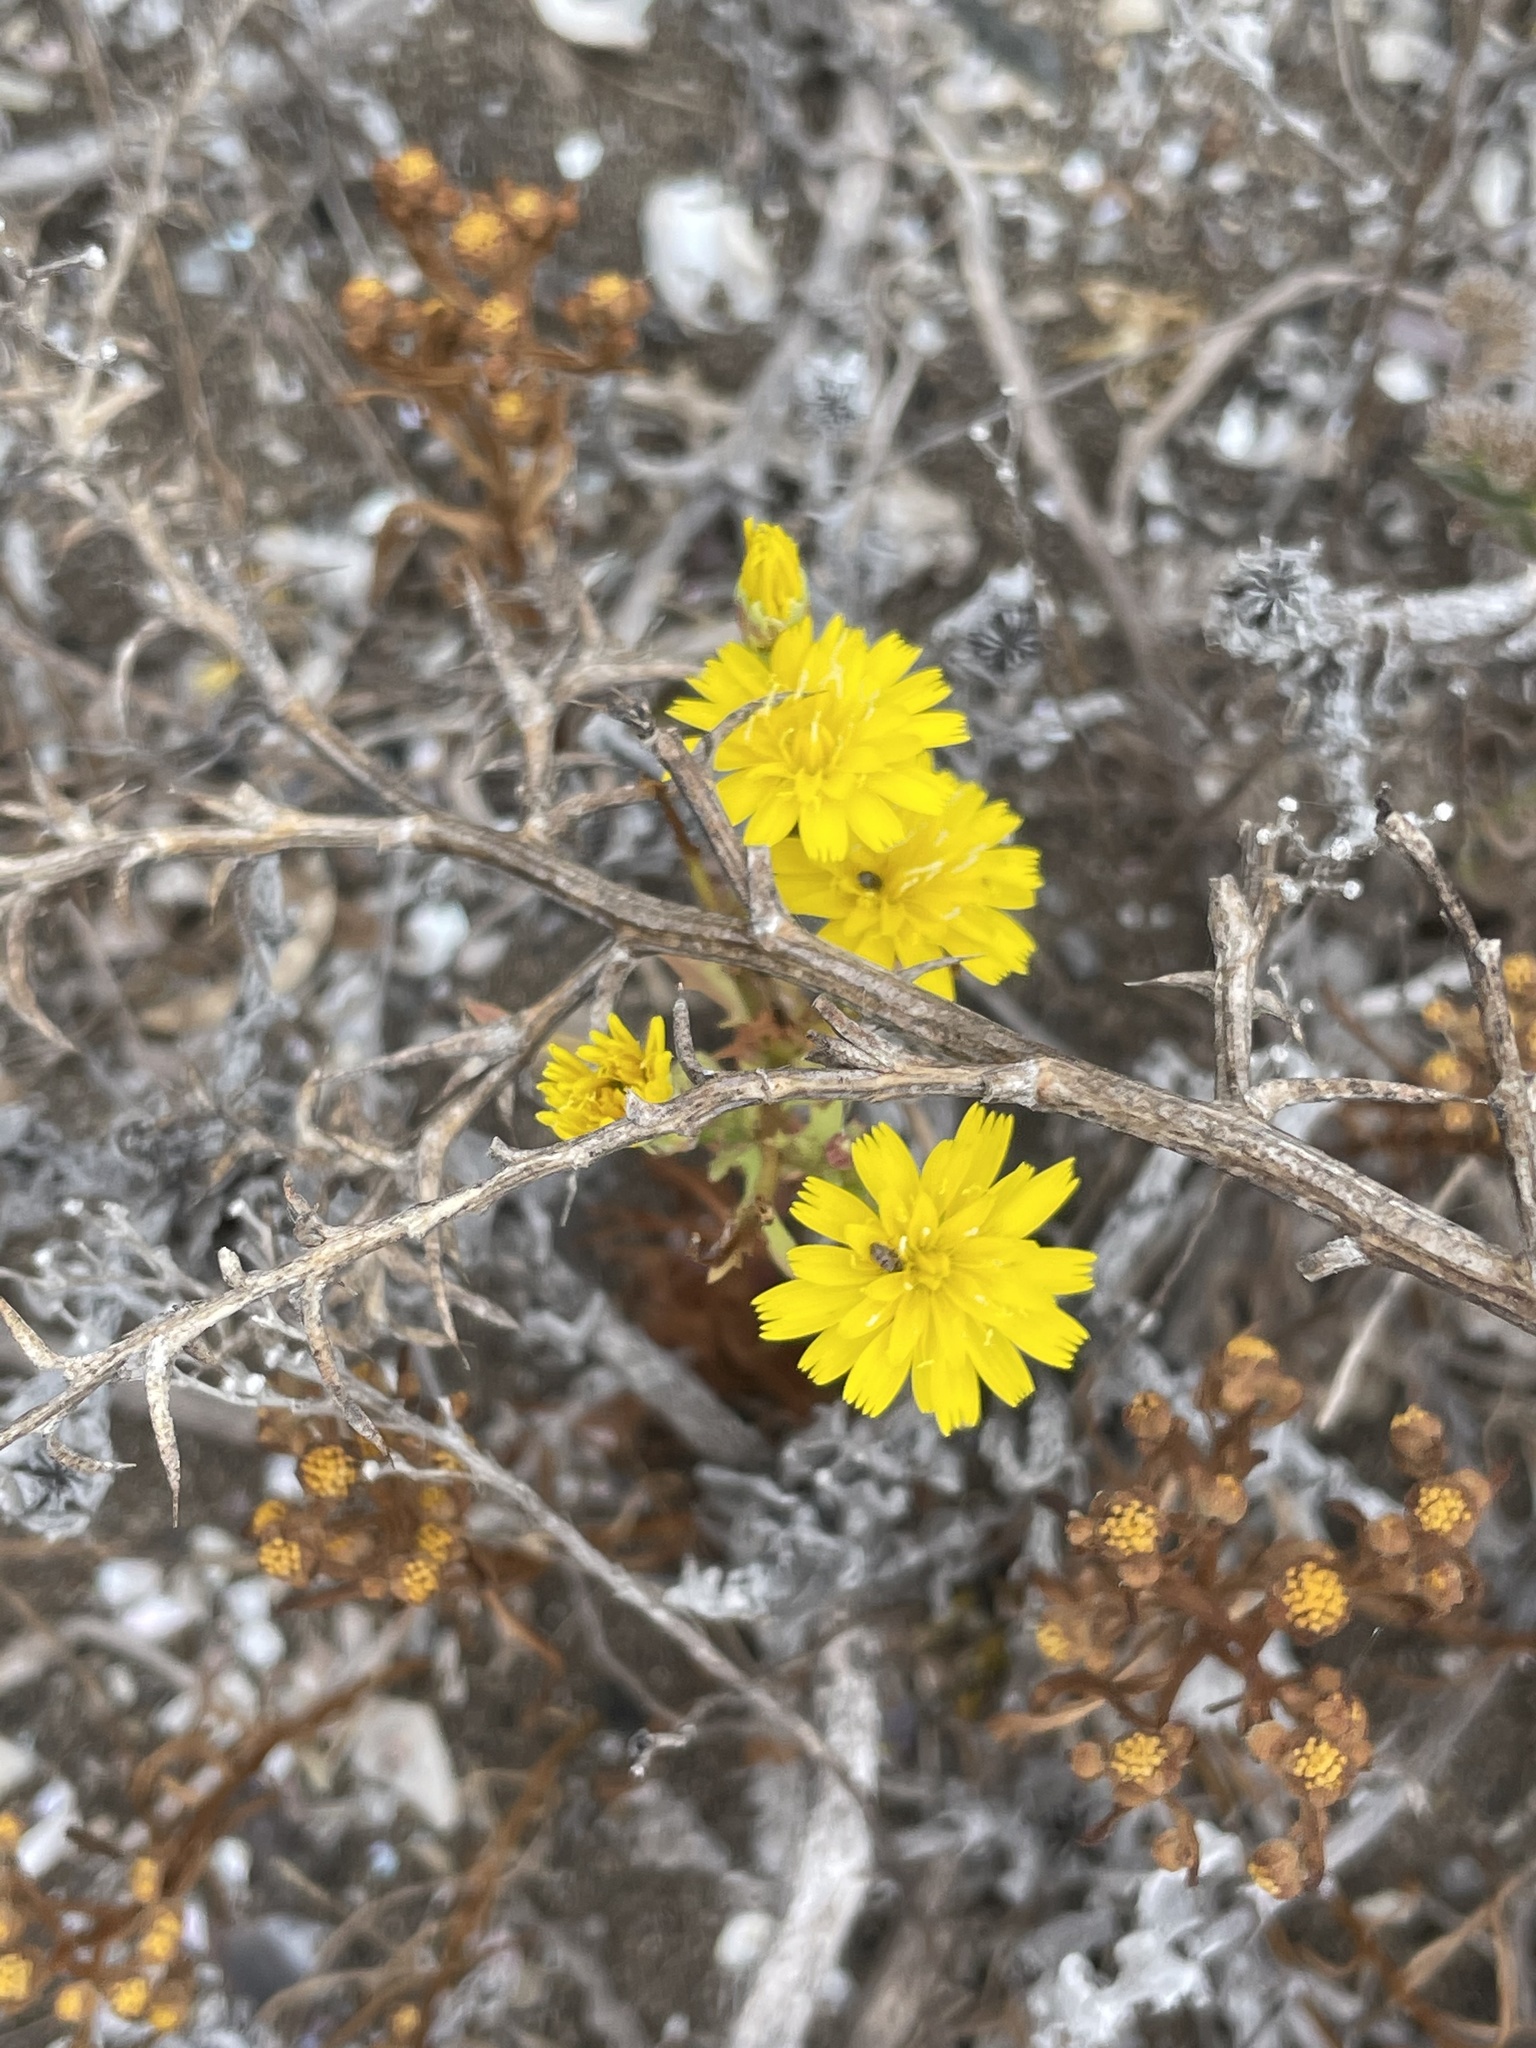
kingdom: Plantae
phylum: Tracheophyta
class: Magnoliopsida
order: Asterales
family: Asteraceae
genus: Malacothrix
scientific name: Malacothrix foliosa
